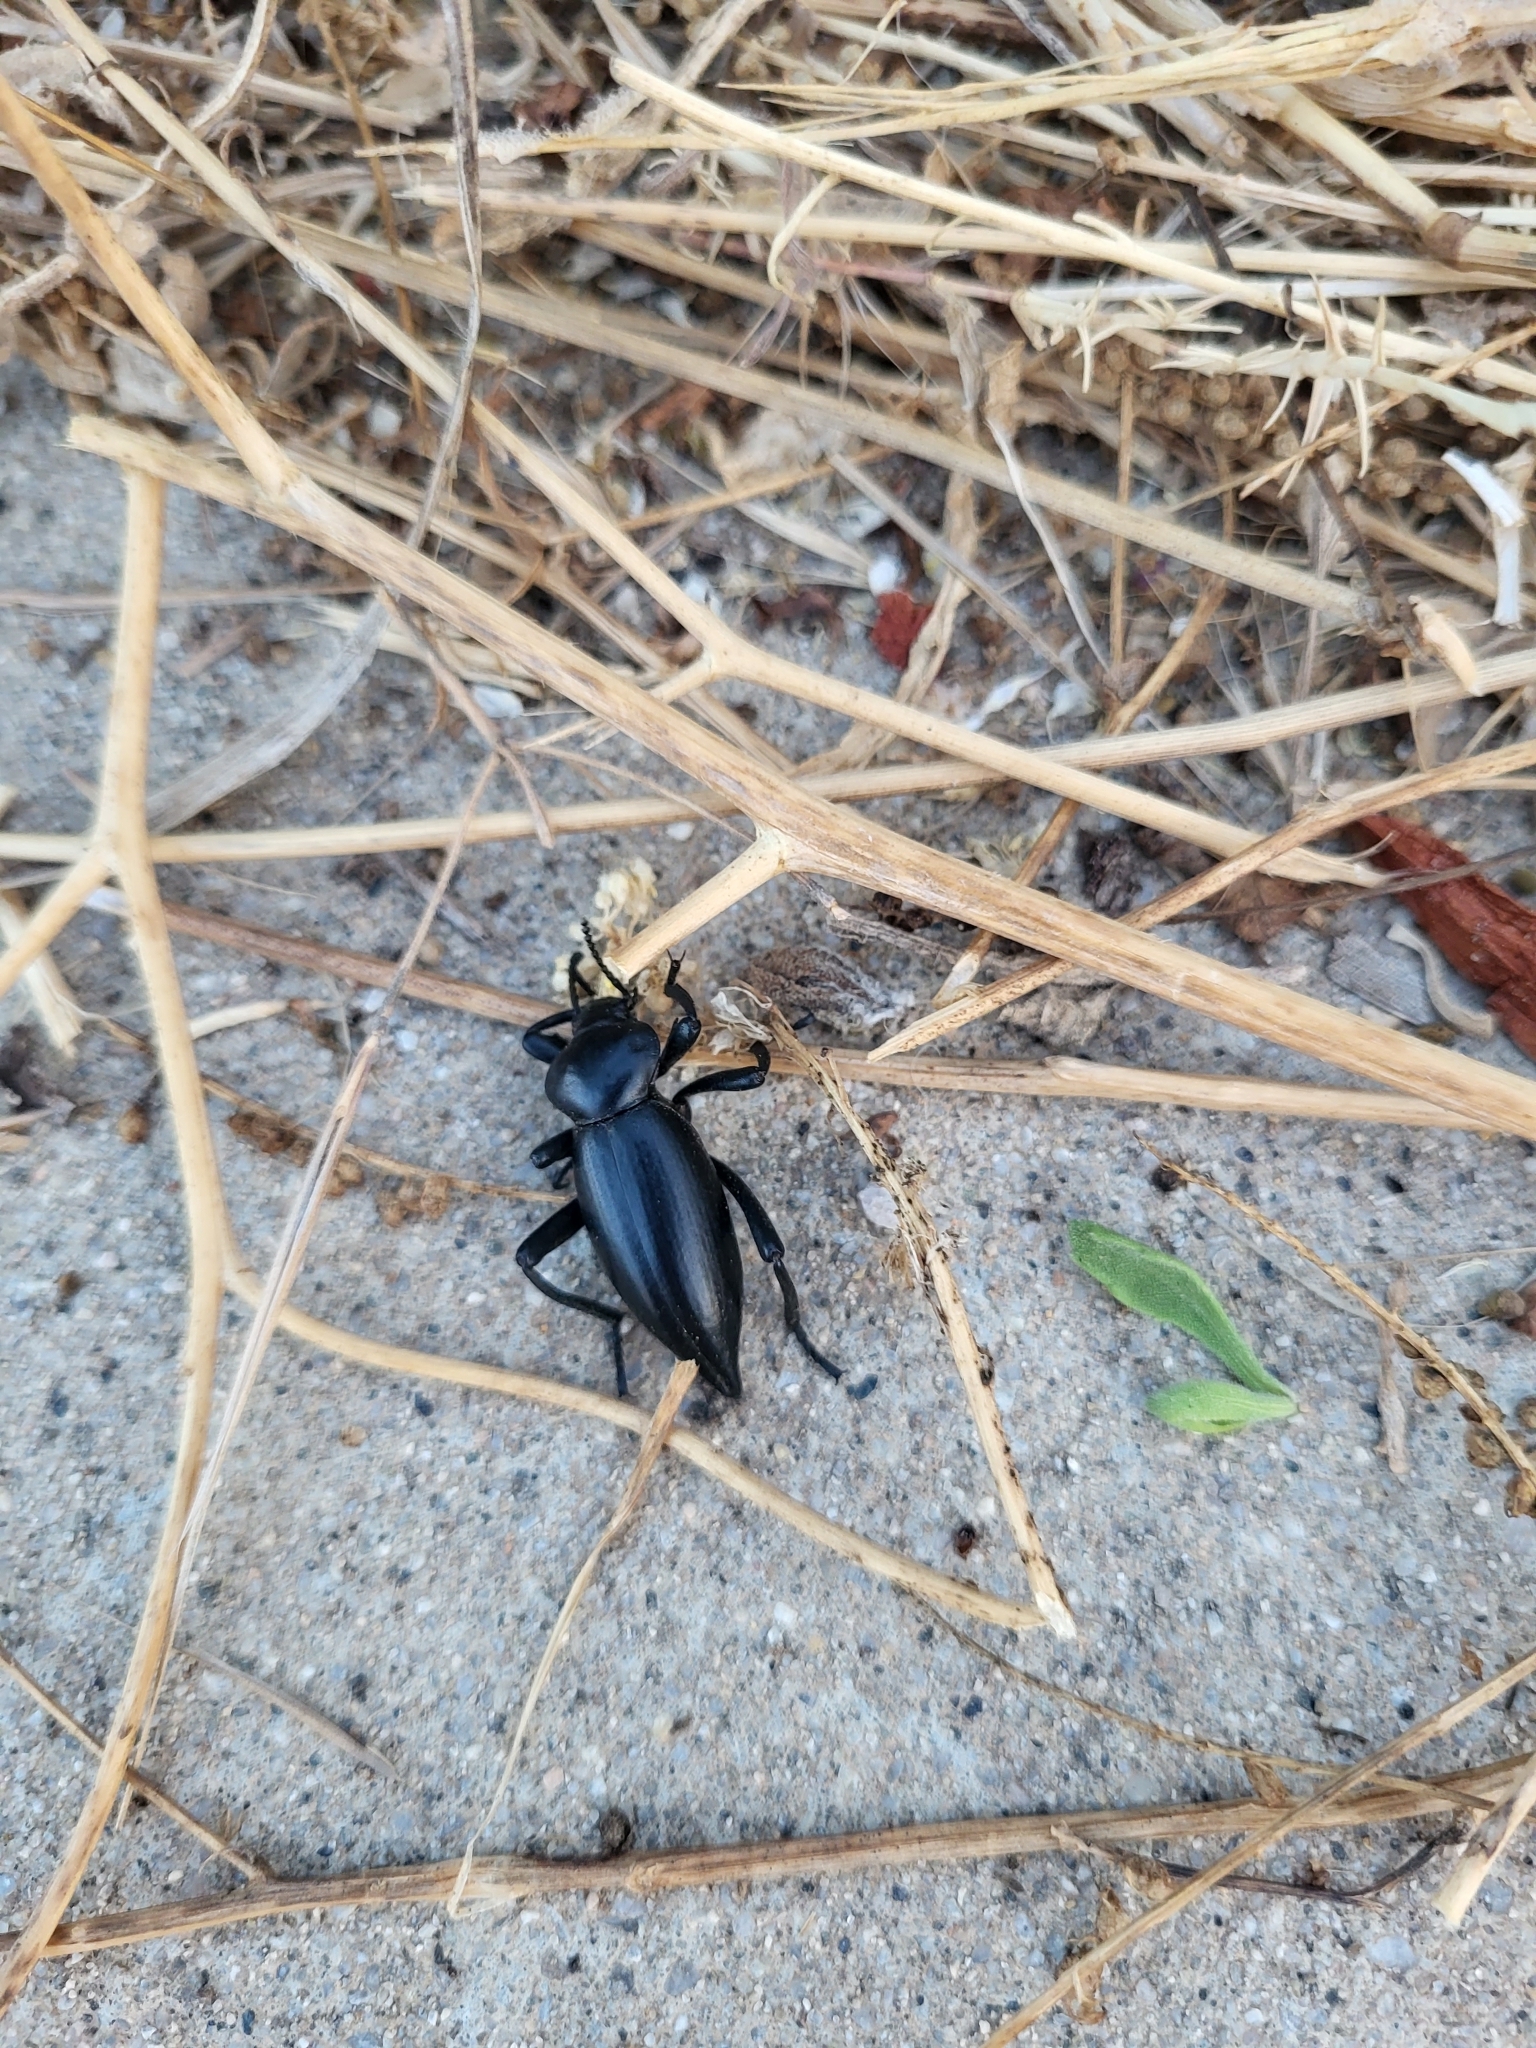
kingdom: Animalia
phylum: Arthropoda
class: Insecta
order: Coleoptera
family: Tenebrionidae
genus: Eleodes
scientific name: Eleodes acuticauda
